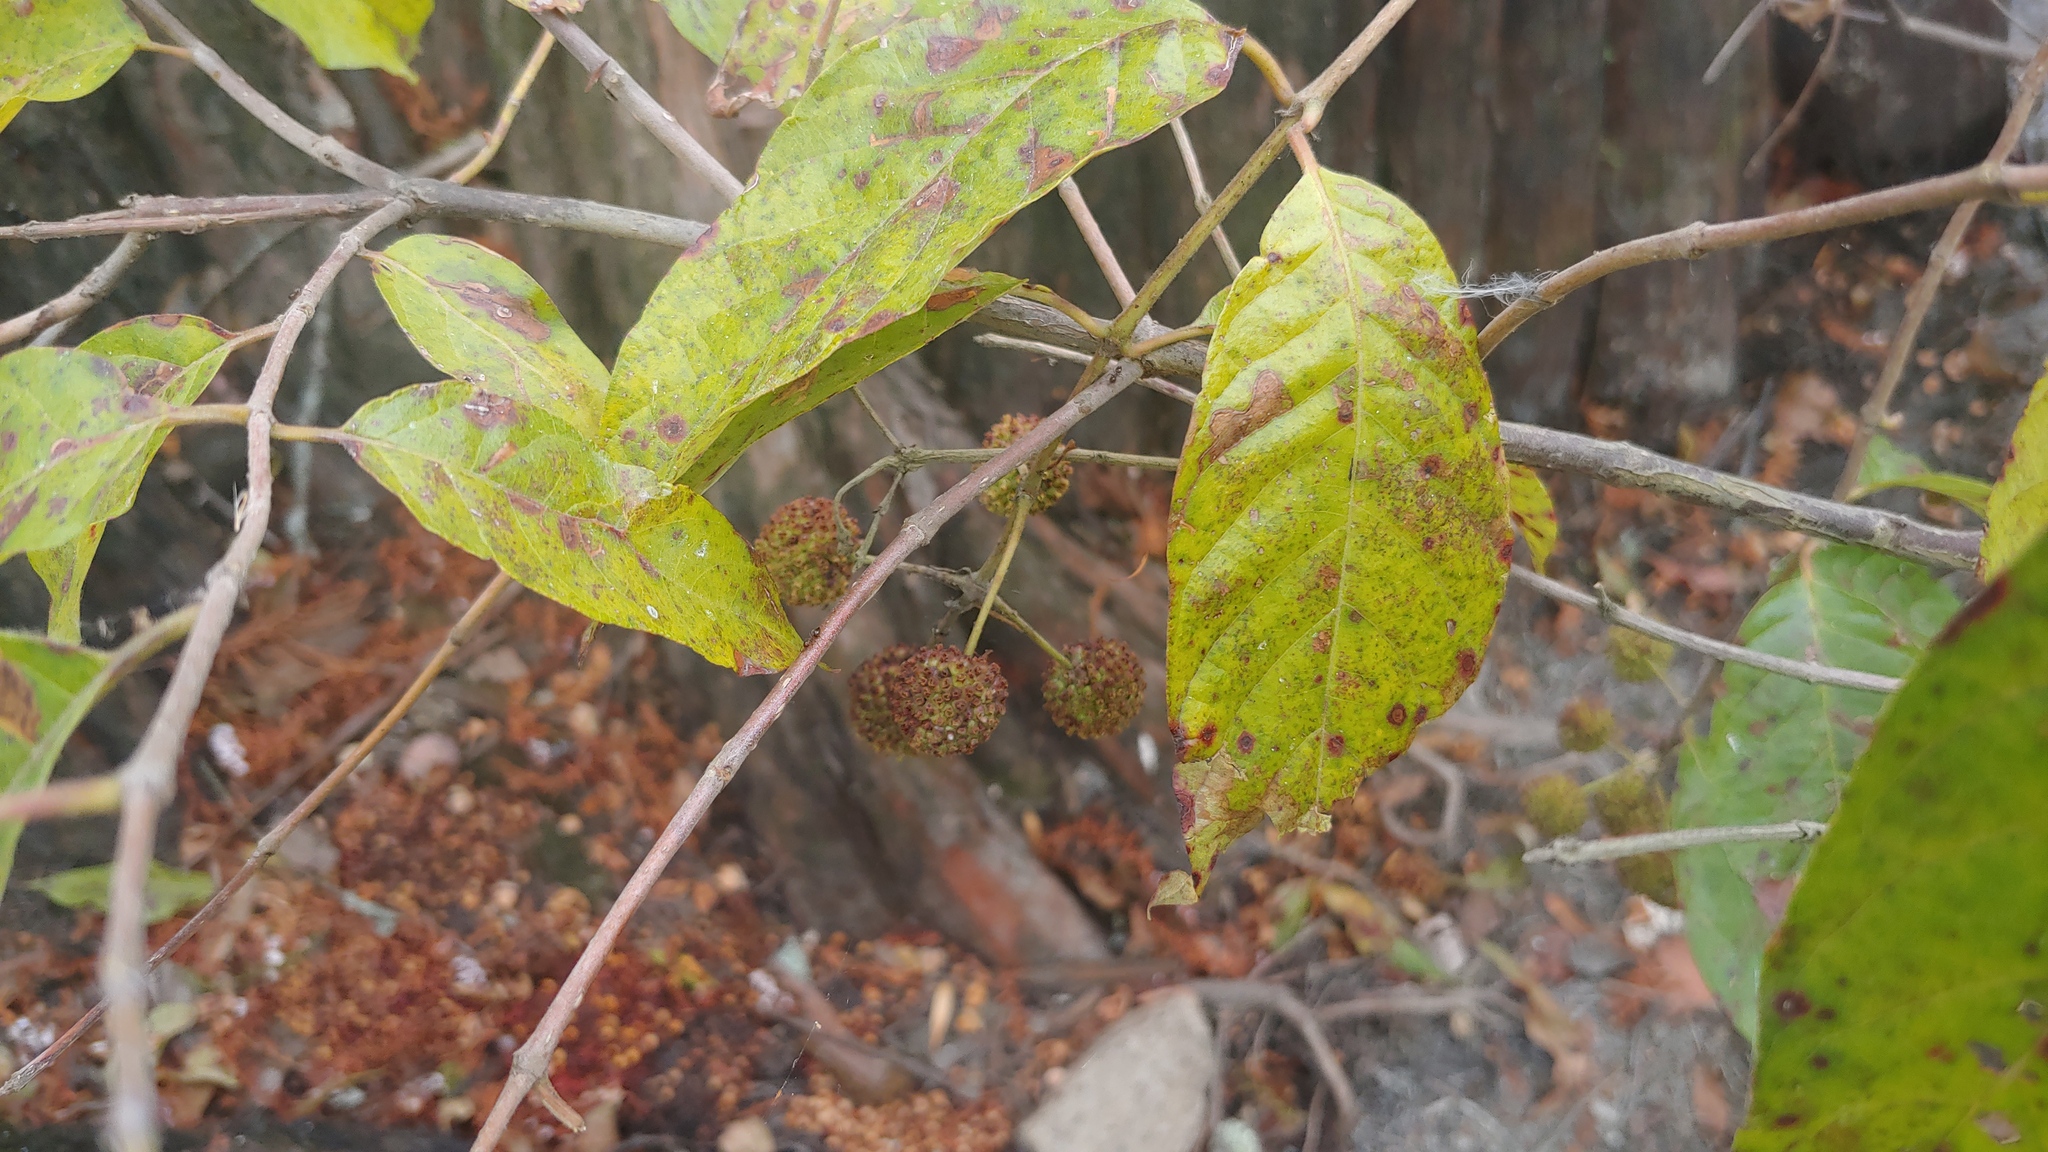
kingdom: Plantae
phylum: Tracheophyta
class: Magnoliopsida
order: Gentianales
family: Rubiaceae
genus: Cephalanthus
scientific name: Cephalanthus occidentalis
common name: Button-willow
